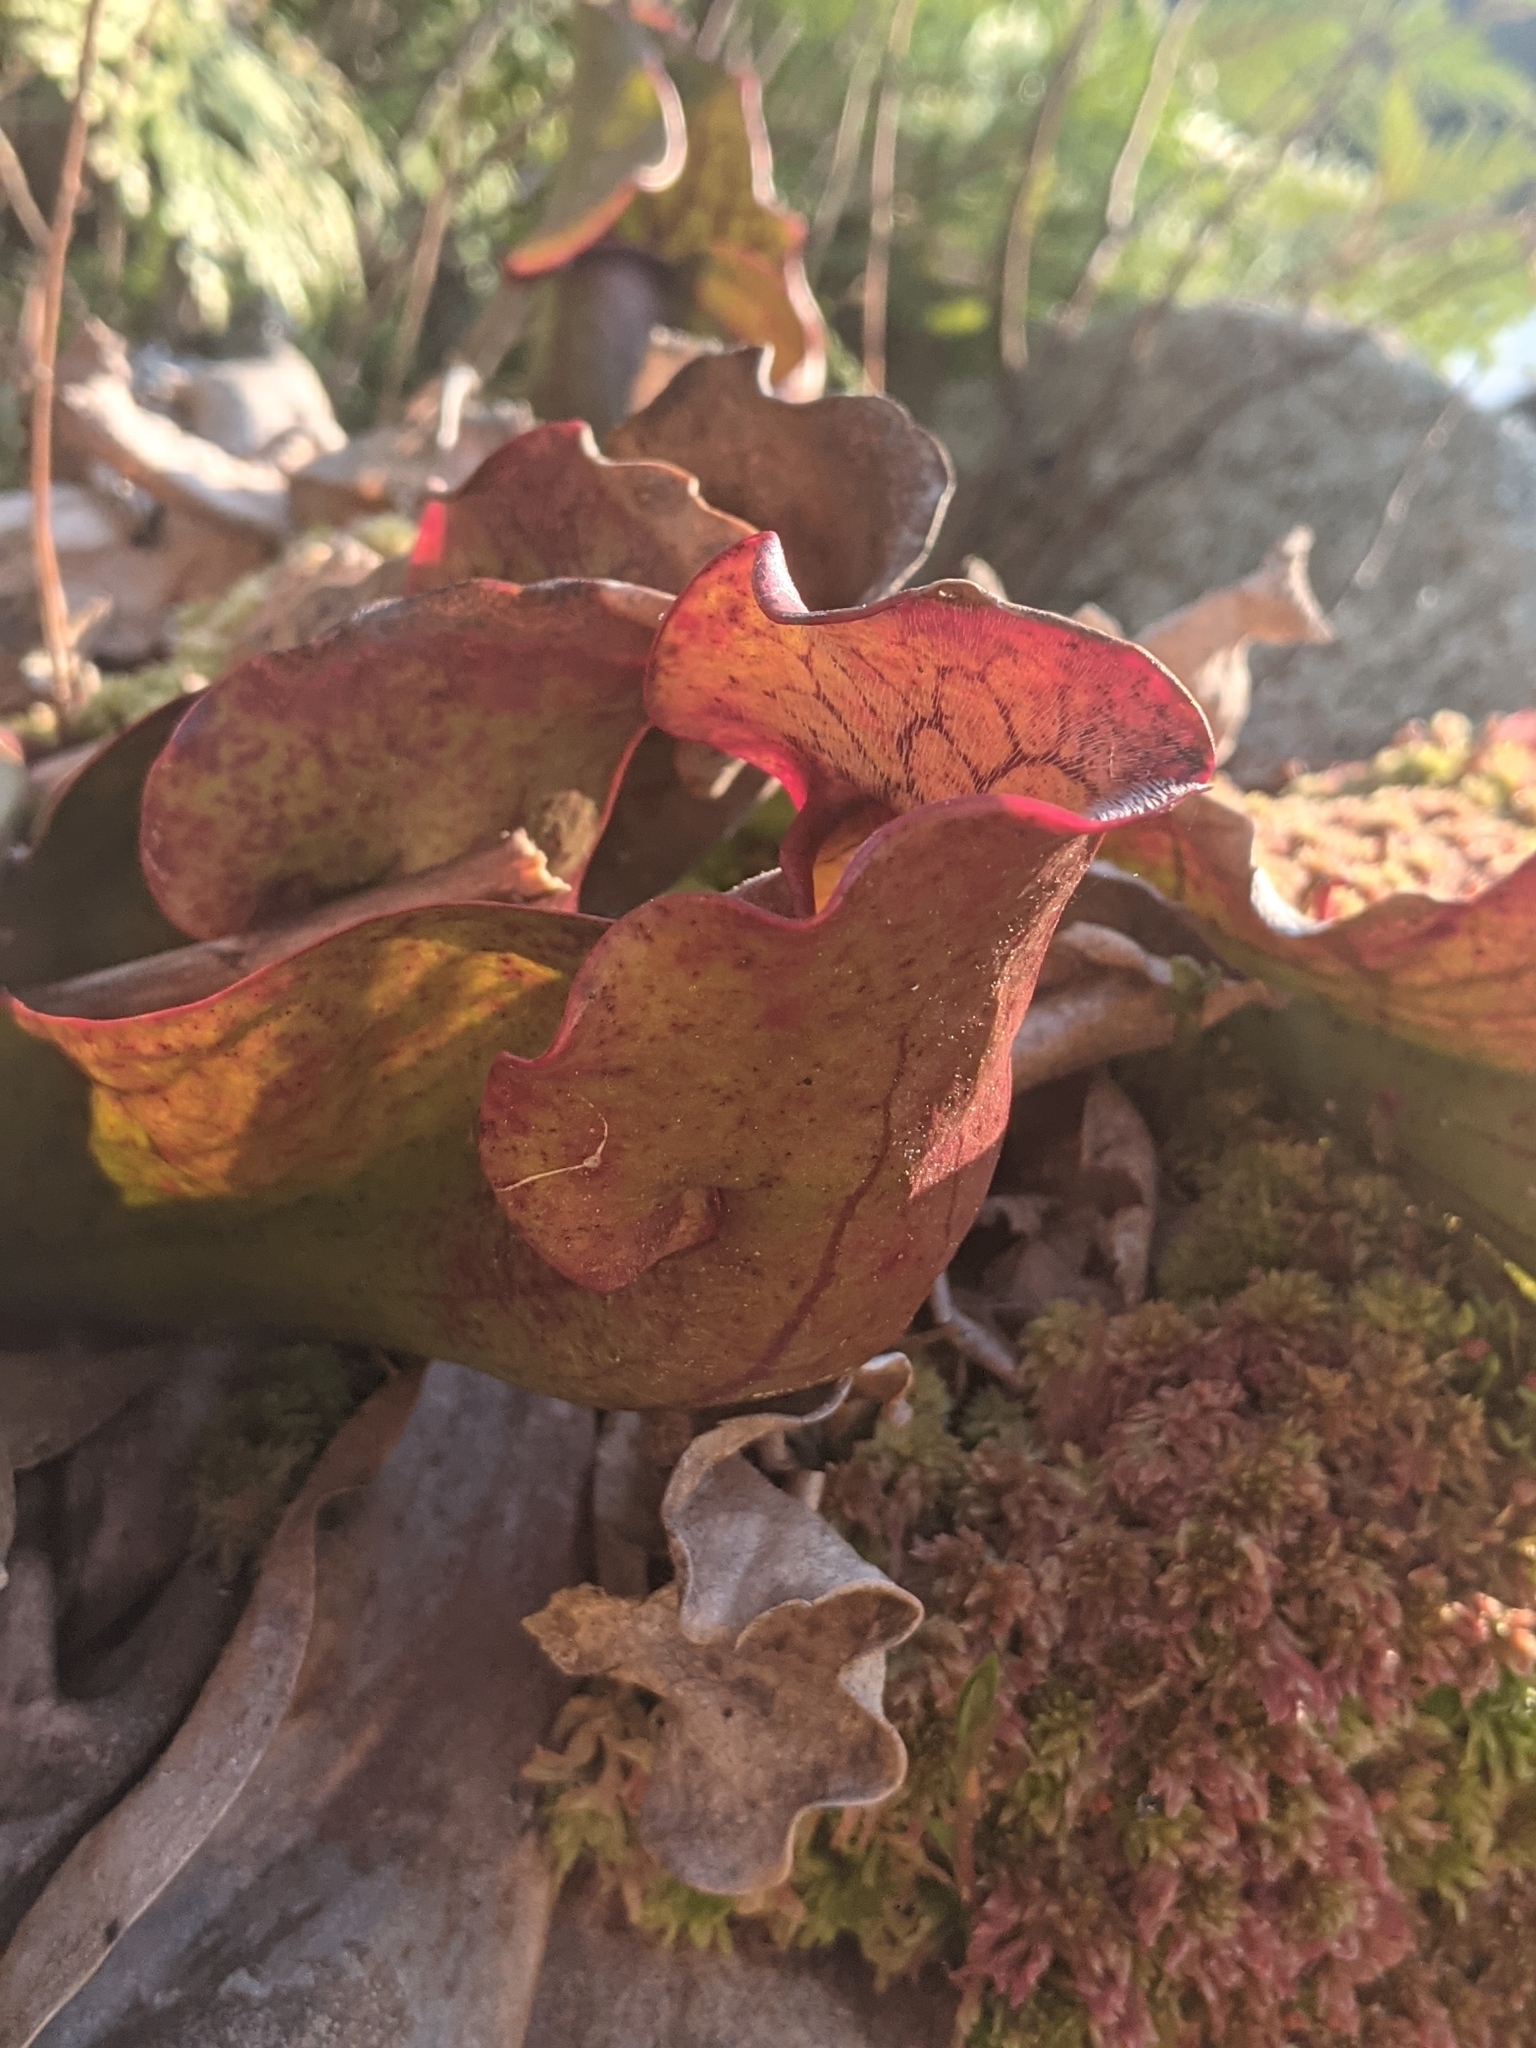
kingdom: Plantae
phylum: Tracheophyta
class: Magnoliopsida
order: Ericales
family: Sarraceniaceae
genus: Sarracenia
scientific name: Sarracenia purpurea
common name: Pitcherplant
